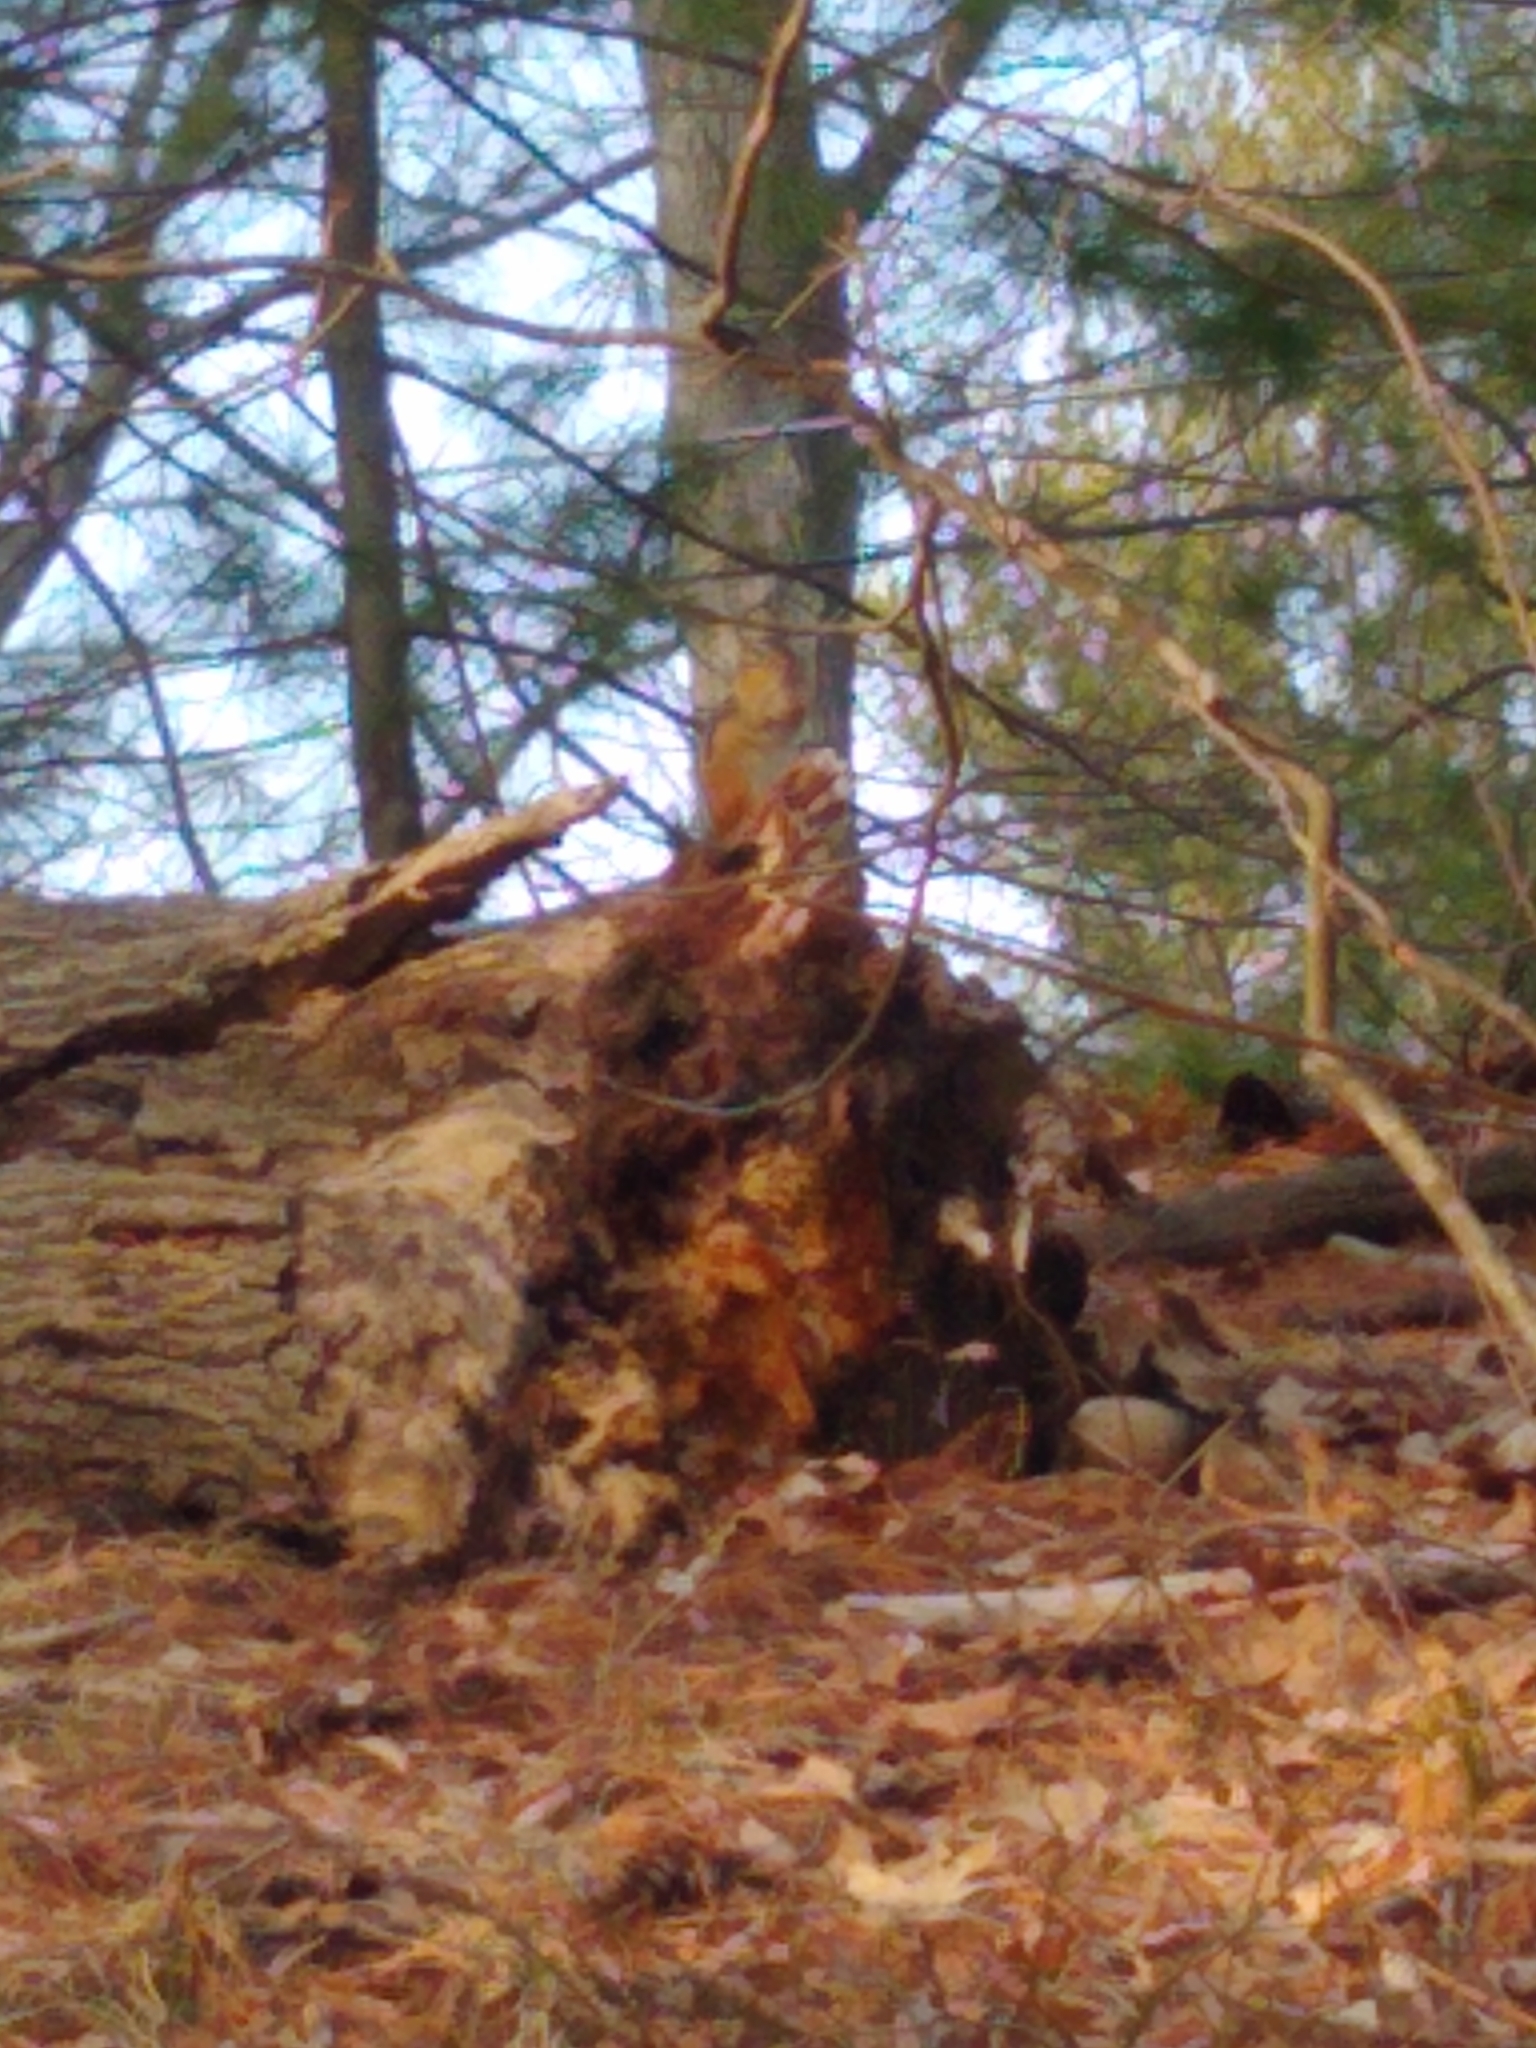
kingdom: Animalia
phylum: Chordata
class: Mammalia
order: Rodentia
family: Sciuridae
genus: Tamias
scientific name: Tamias striatus
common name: Eastern chipmunk
